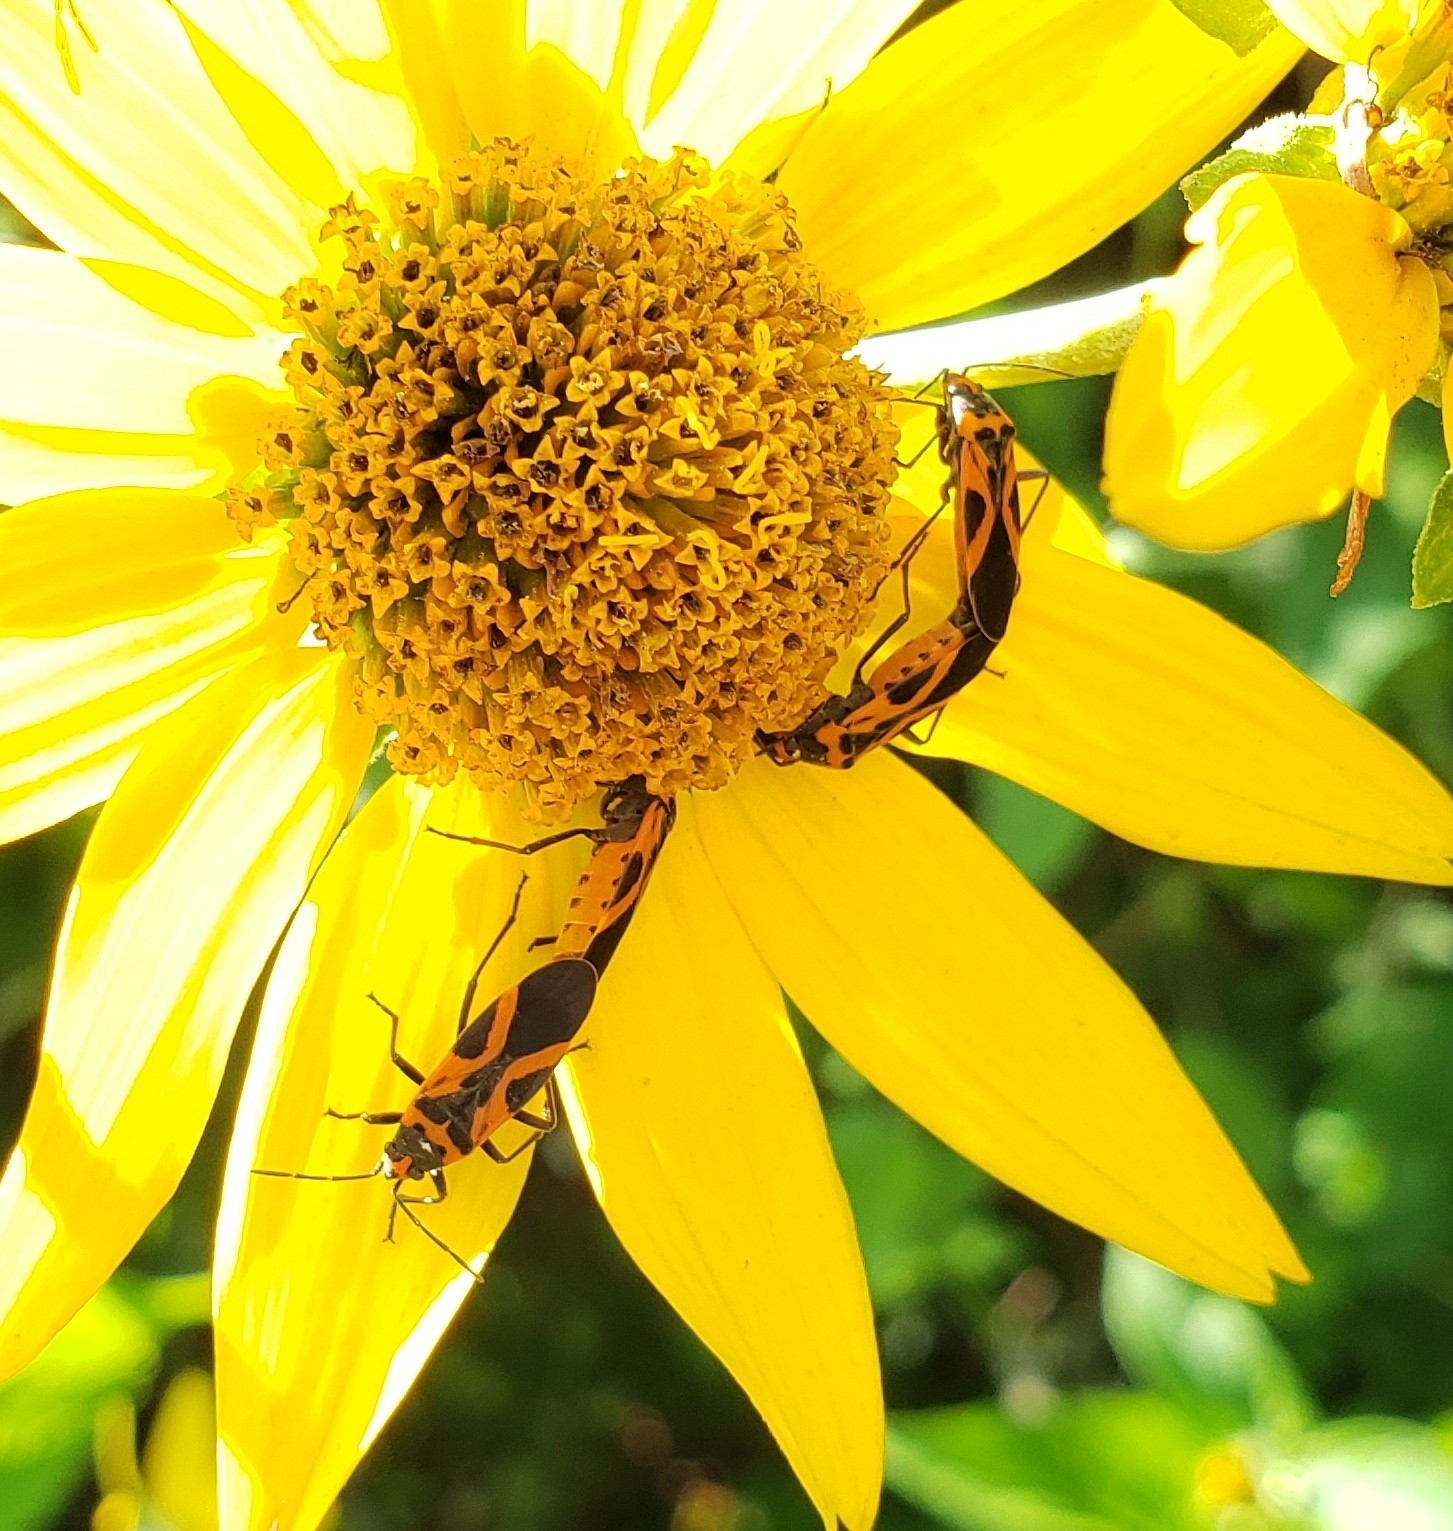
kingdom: Animalia
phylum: Arthropoda
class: Insecta
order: Hemiptera
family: Lygaeidae
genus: Lygaeus
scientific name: Lygaeus turcicus
